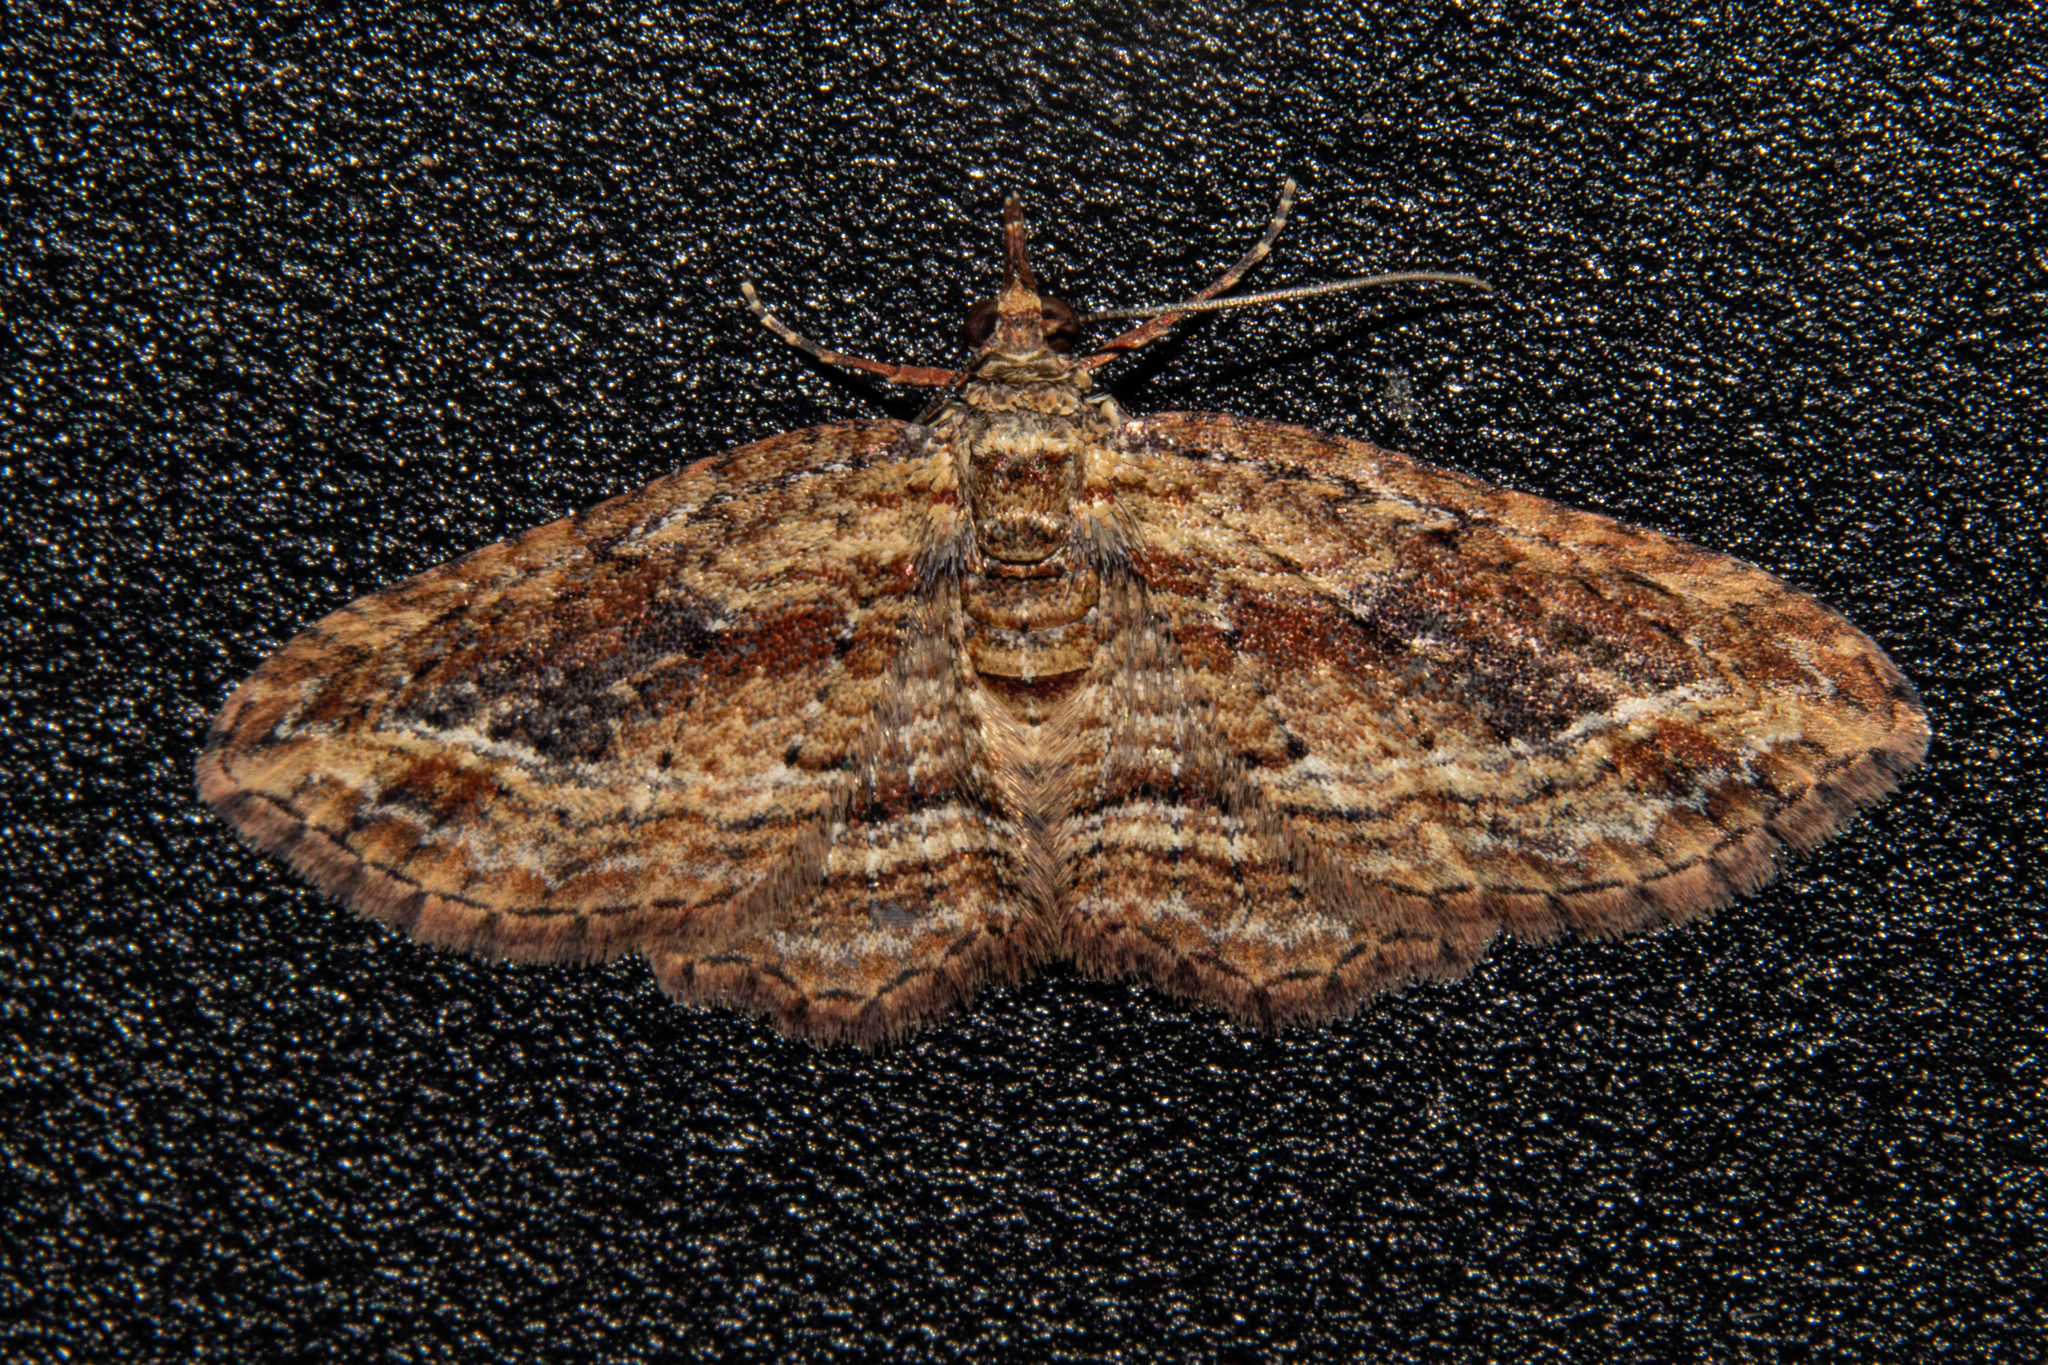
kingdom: Animalia
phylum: Arthropoda
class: Insecta
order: Lepidoptera
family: Geometridae
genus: Chloroclystis
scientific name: Chloroclystis filata
